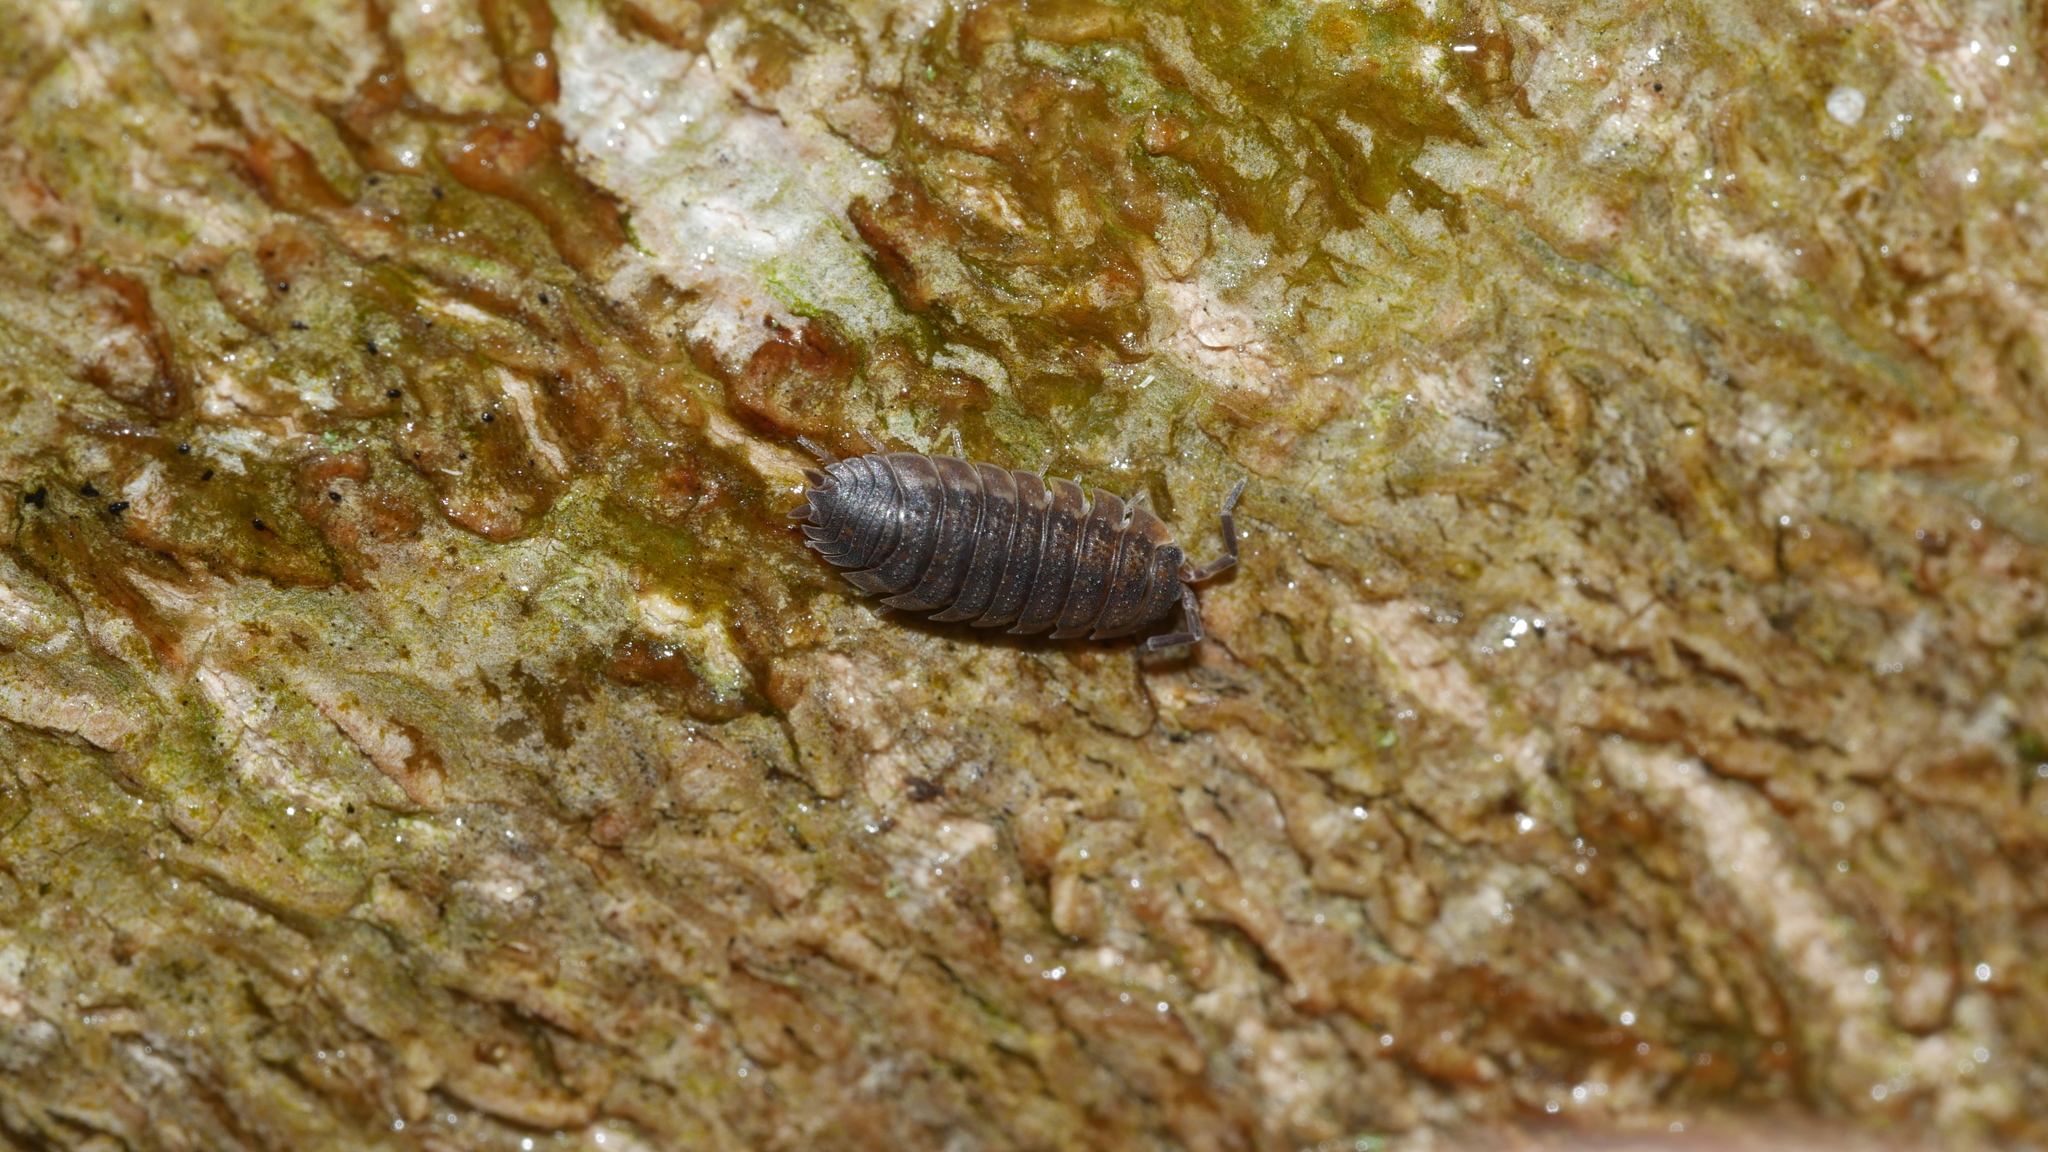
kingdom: Animalia
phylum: Arthropoda
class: Malacostraca
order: Isopoda
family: Porcellionidae
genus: Porcellio
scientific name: Porcellio scaber
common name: Common rough woodlouse
